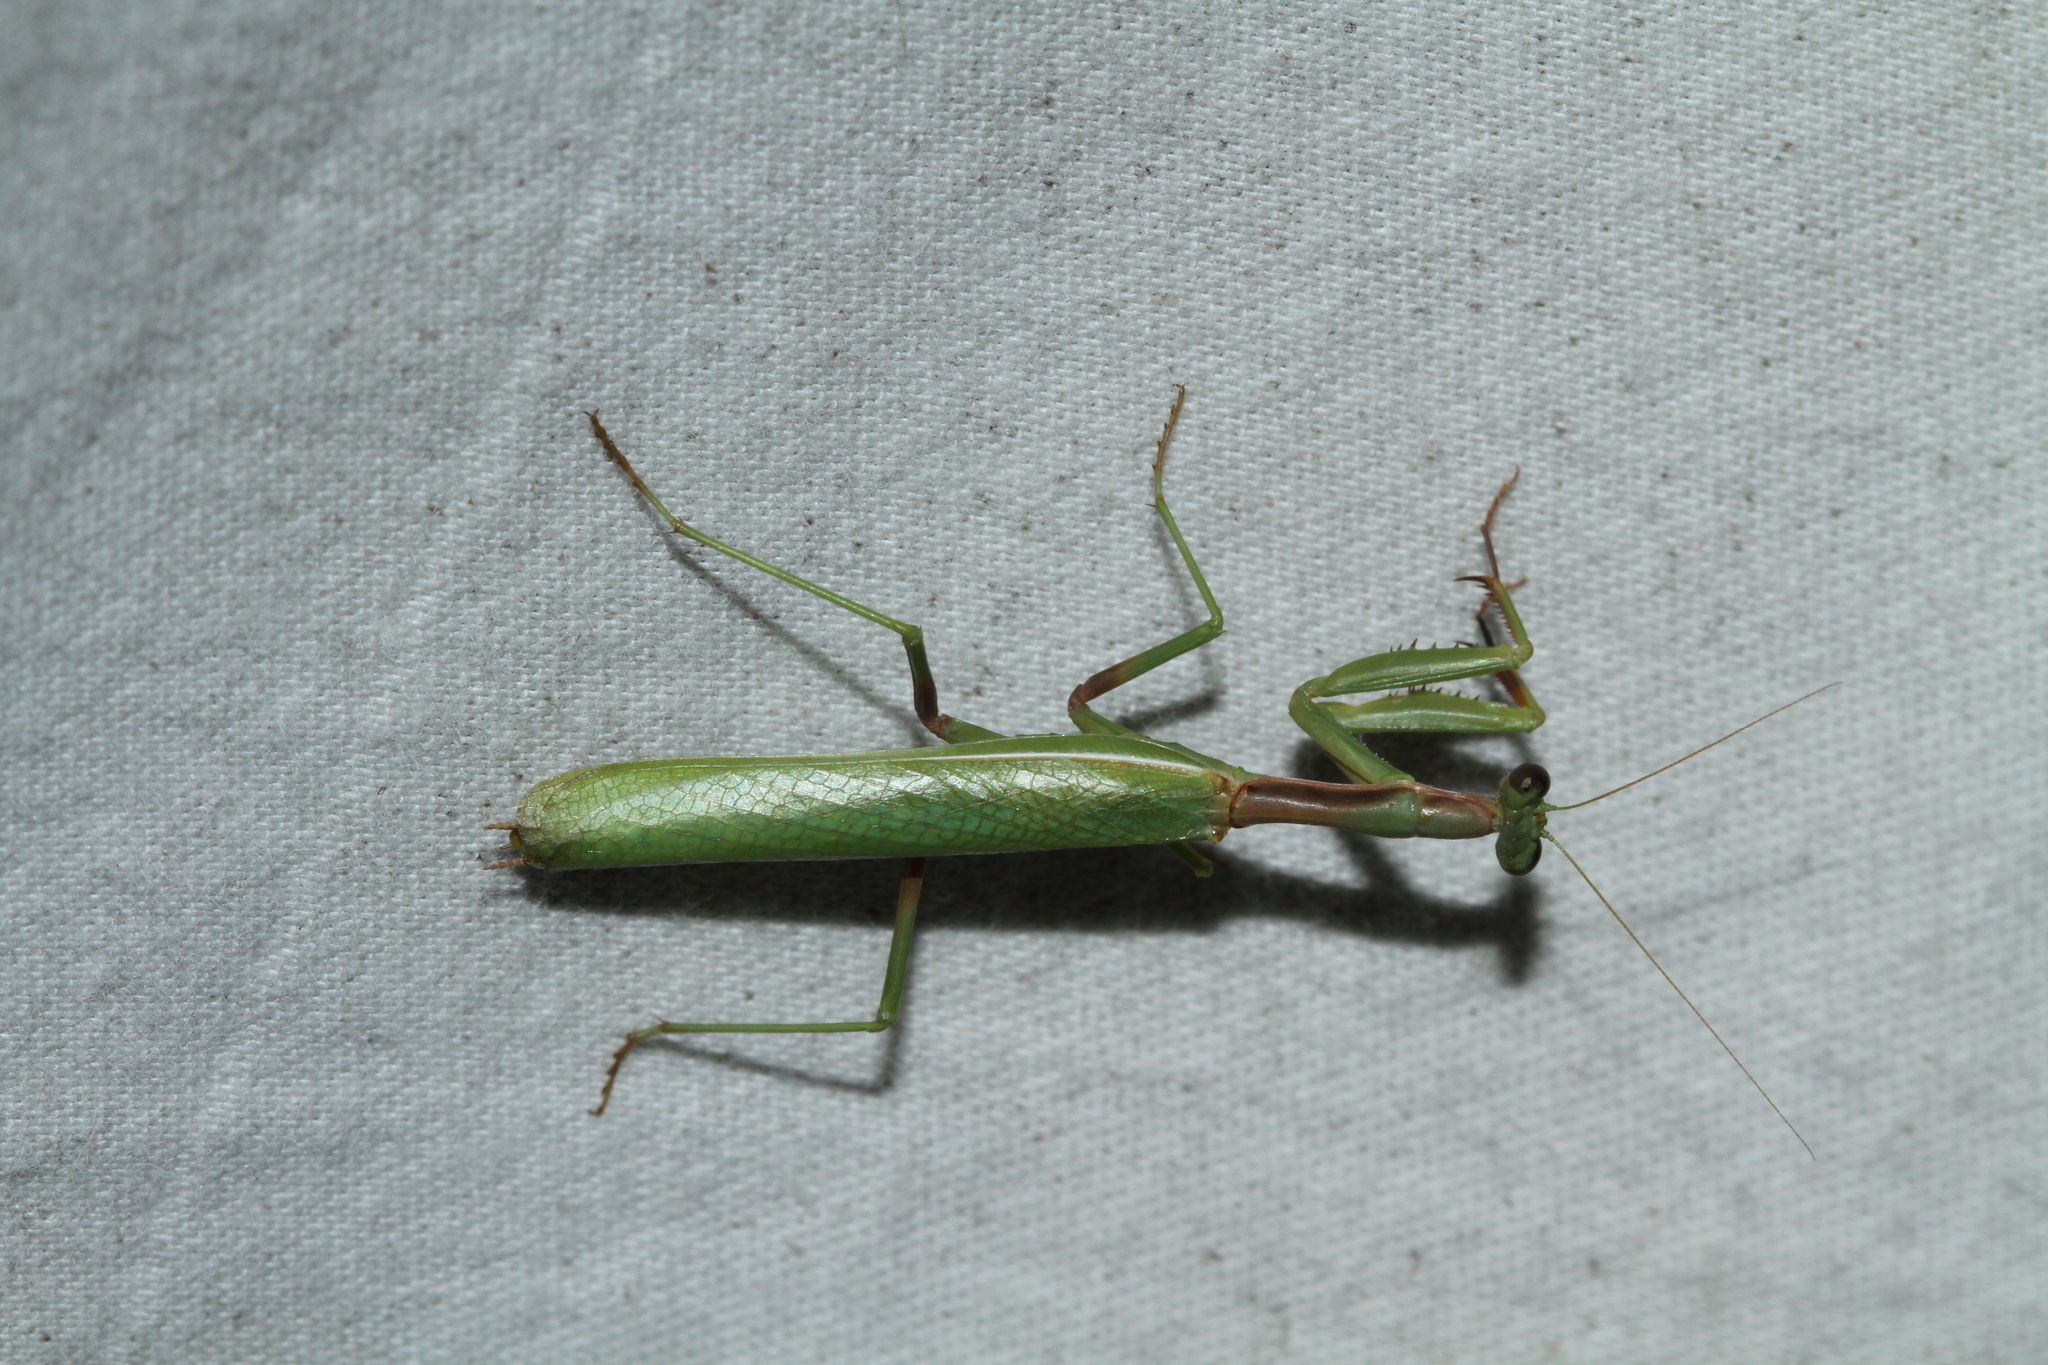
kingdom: Animalia
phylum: Arthropoda
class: Insecta
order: Mantodea
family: Eremiaphilidae
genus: Iris
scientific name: Iris oratoria
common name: Mediterranean mantis
